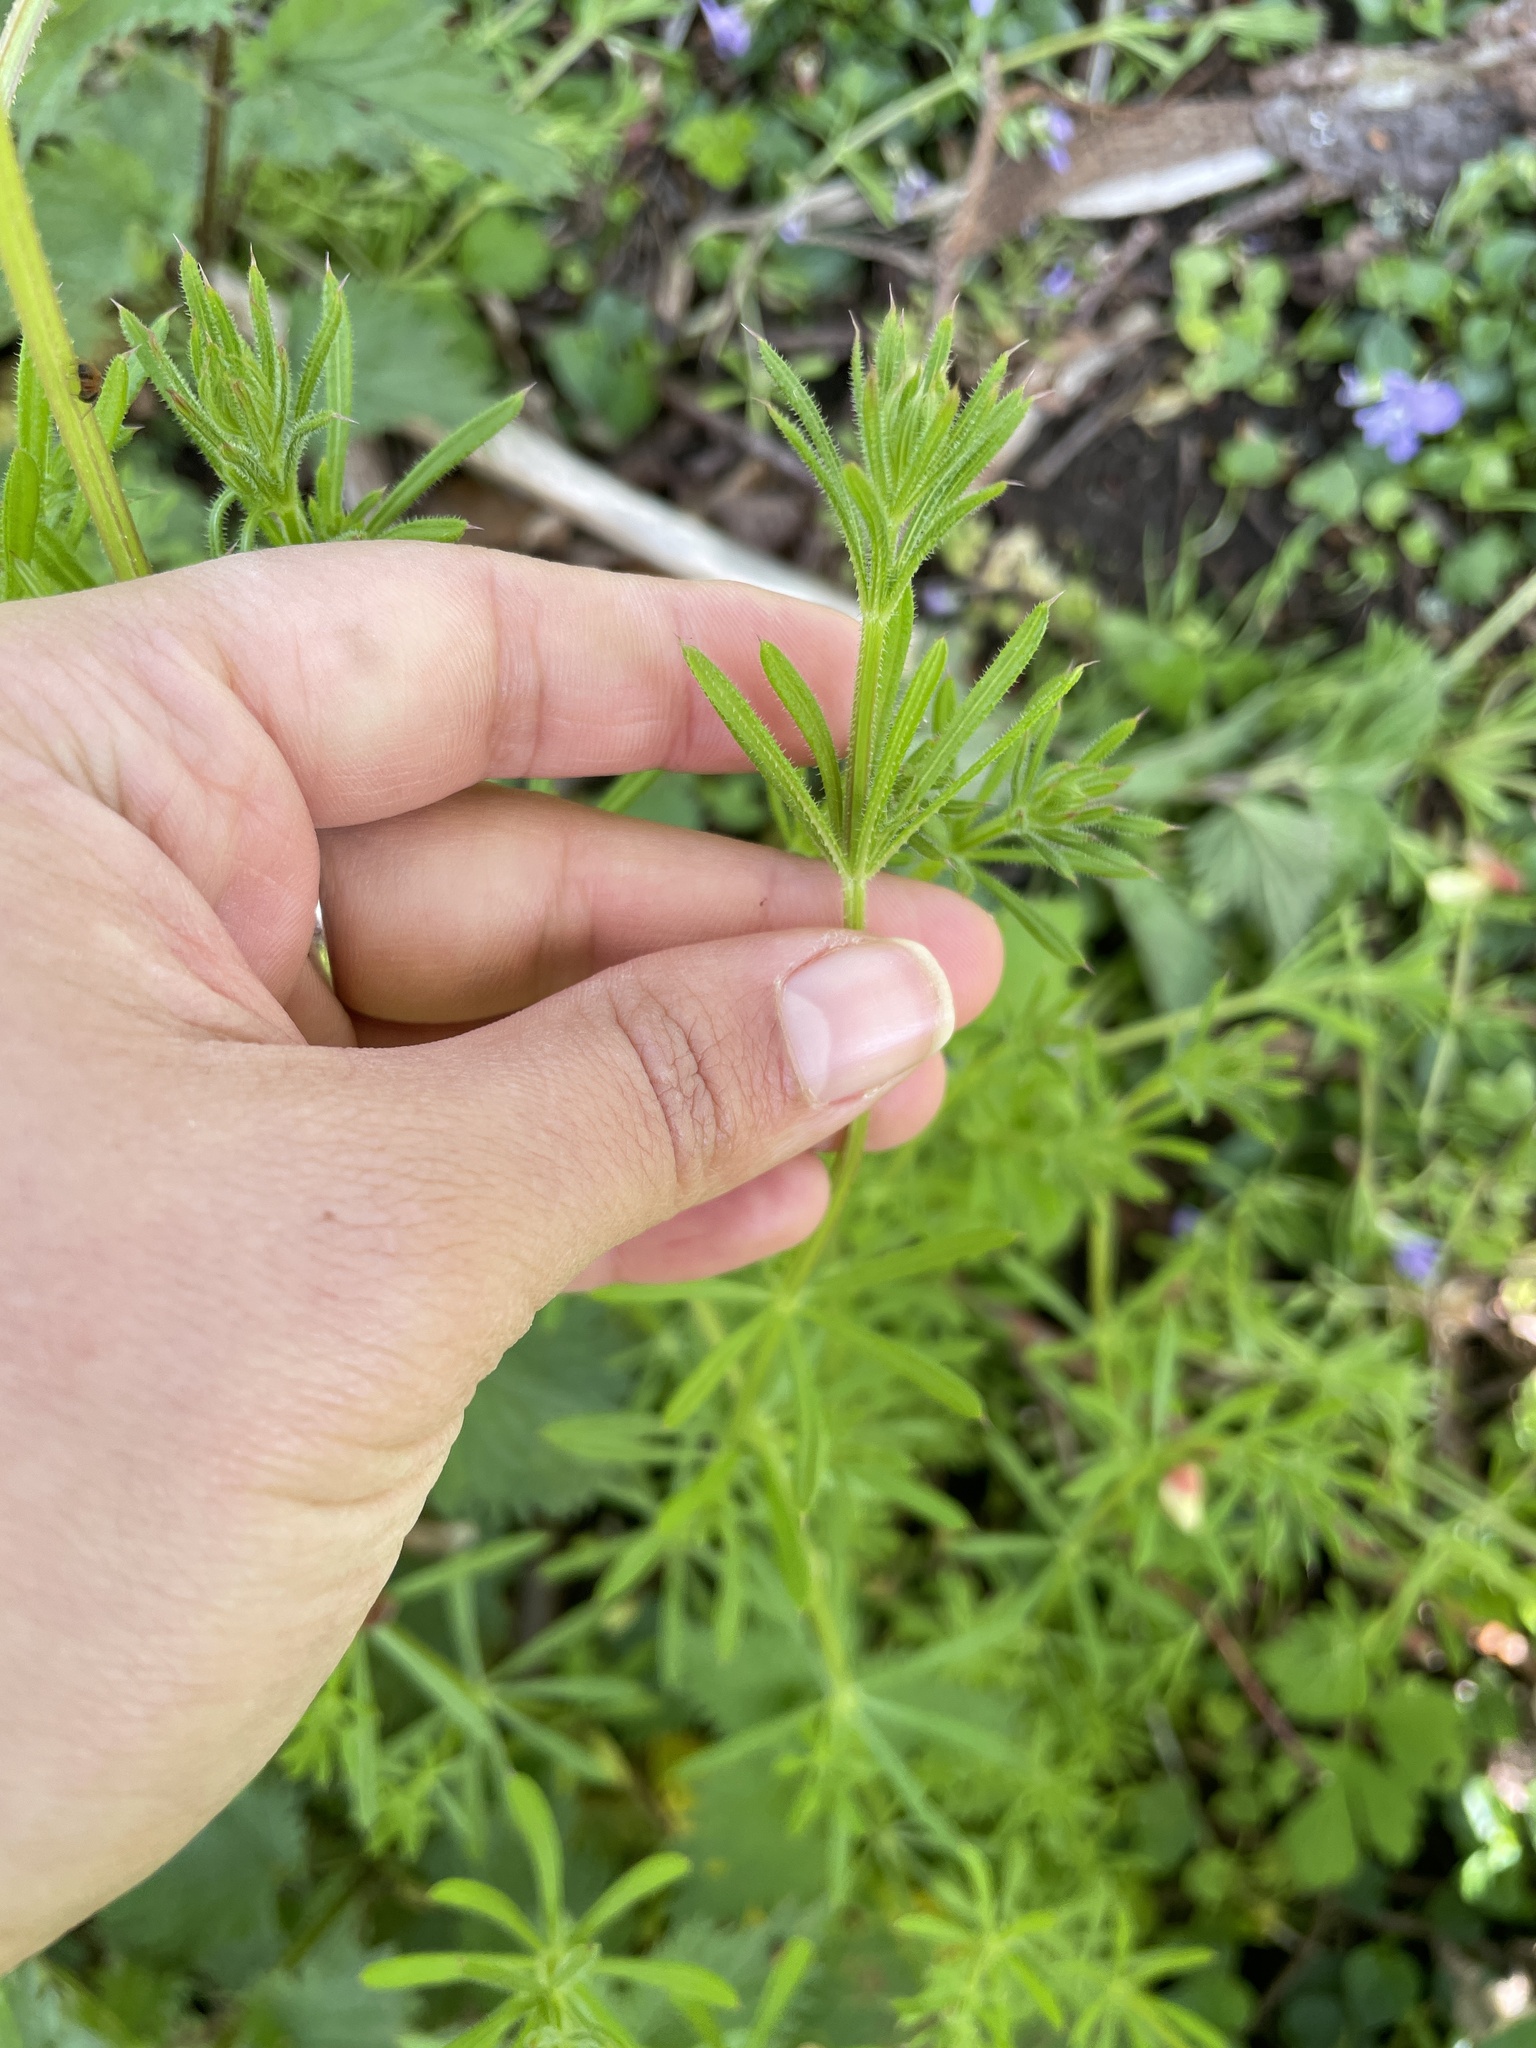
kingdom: Plantae
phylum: Tracheophyta
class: Magnoliopsida
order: Gentianales
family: Rubiaceae
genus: Galium
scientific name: Galium aparine
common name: Cleavers
